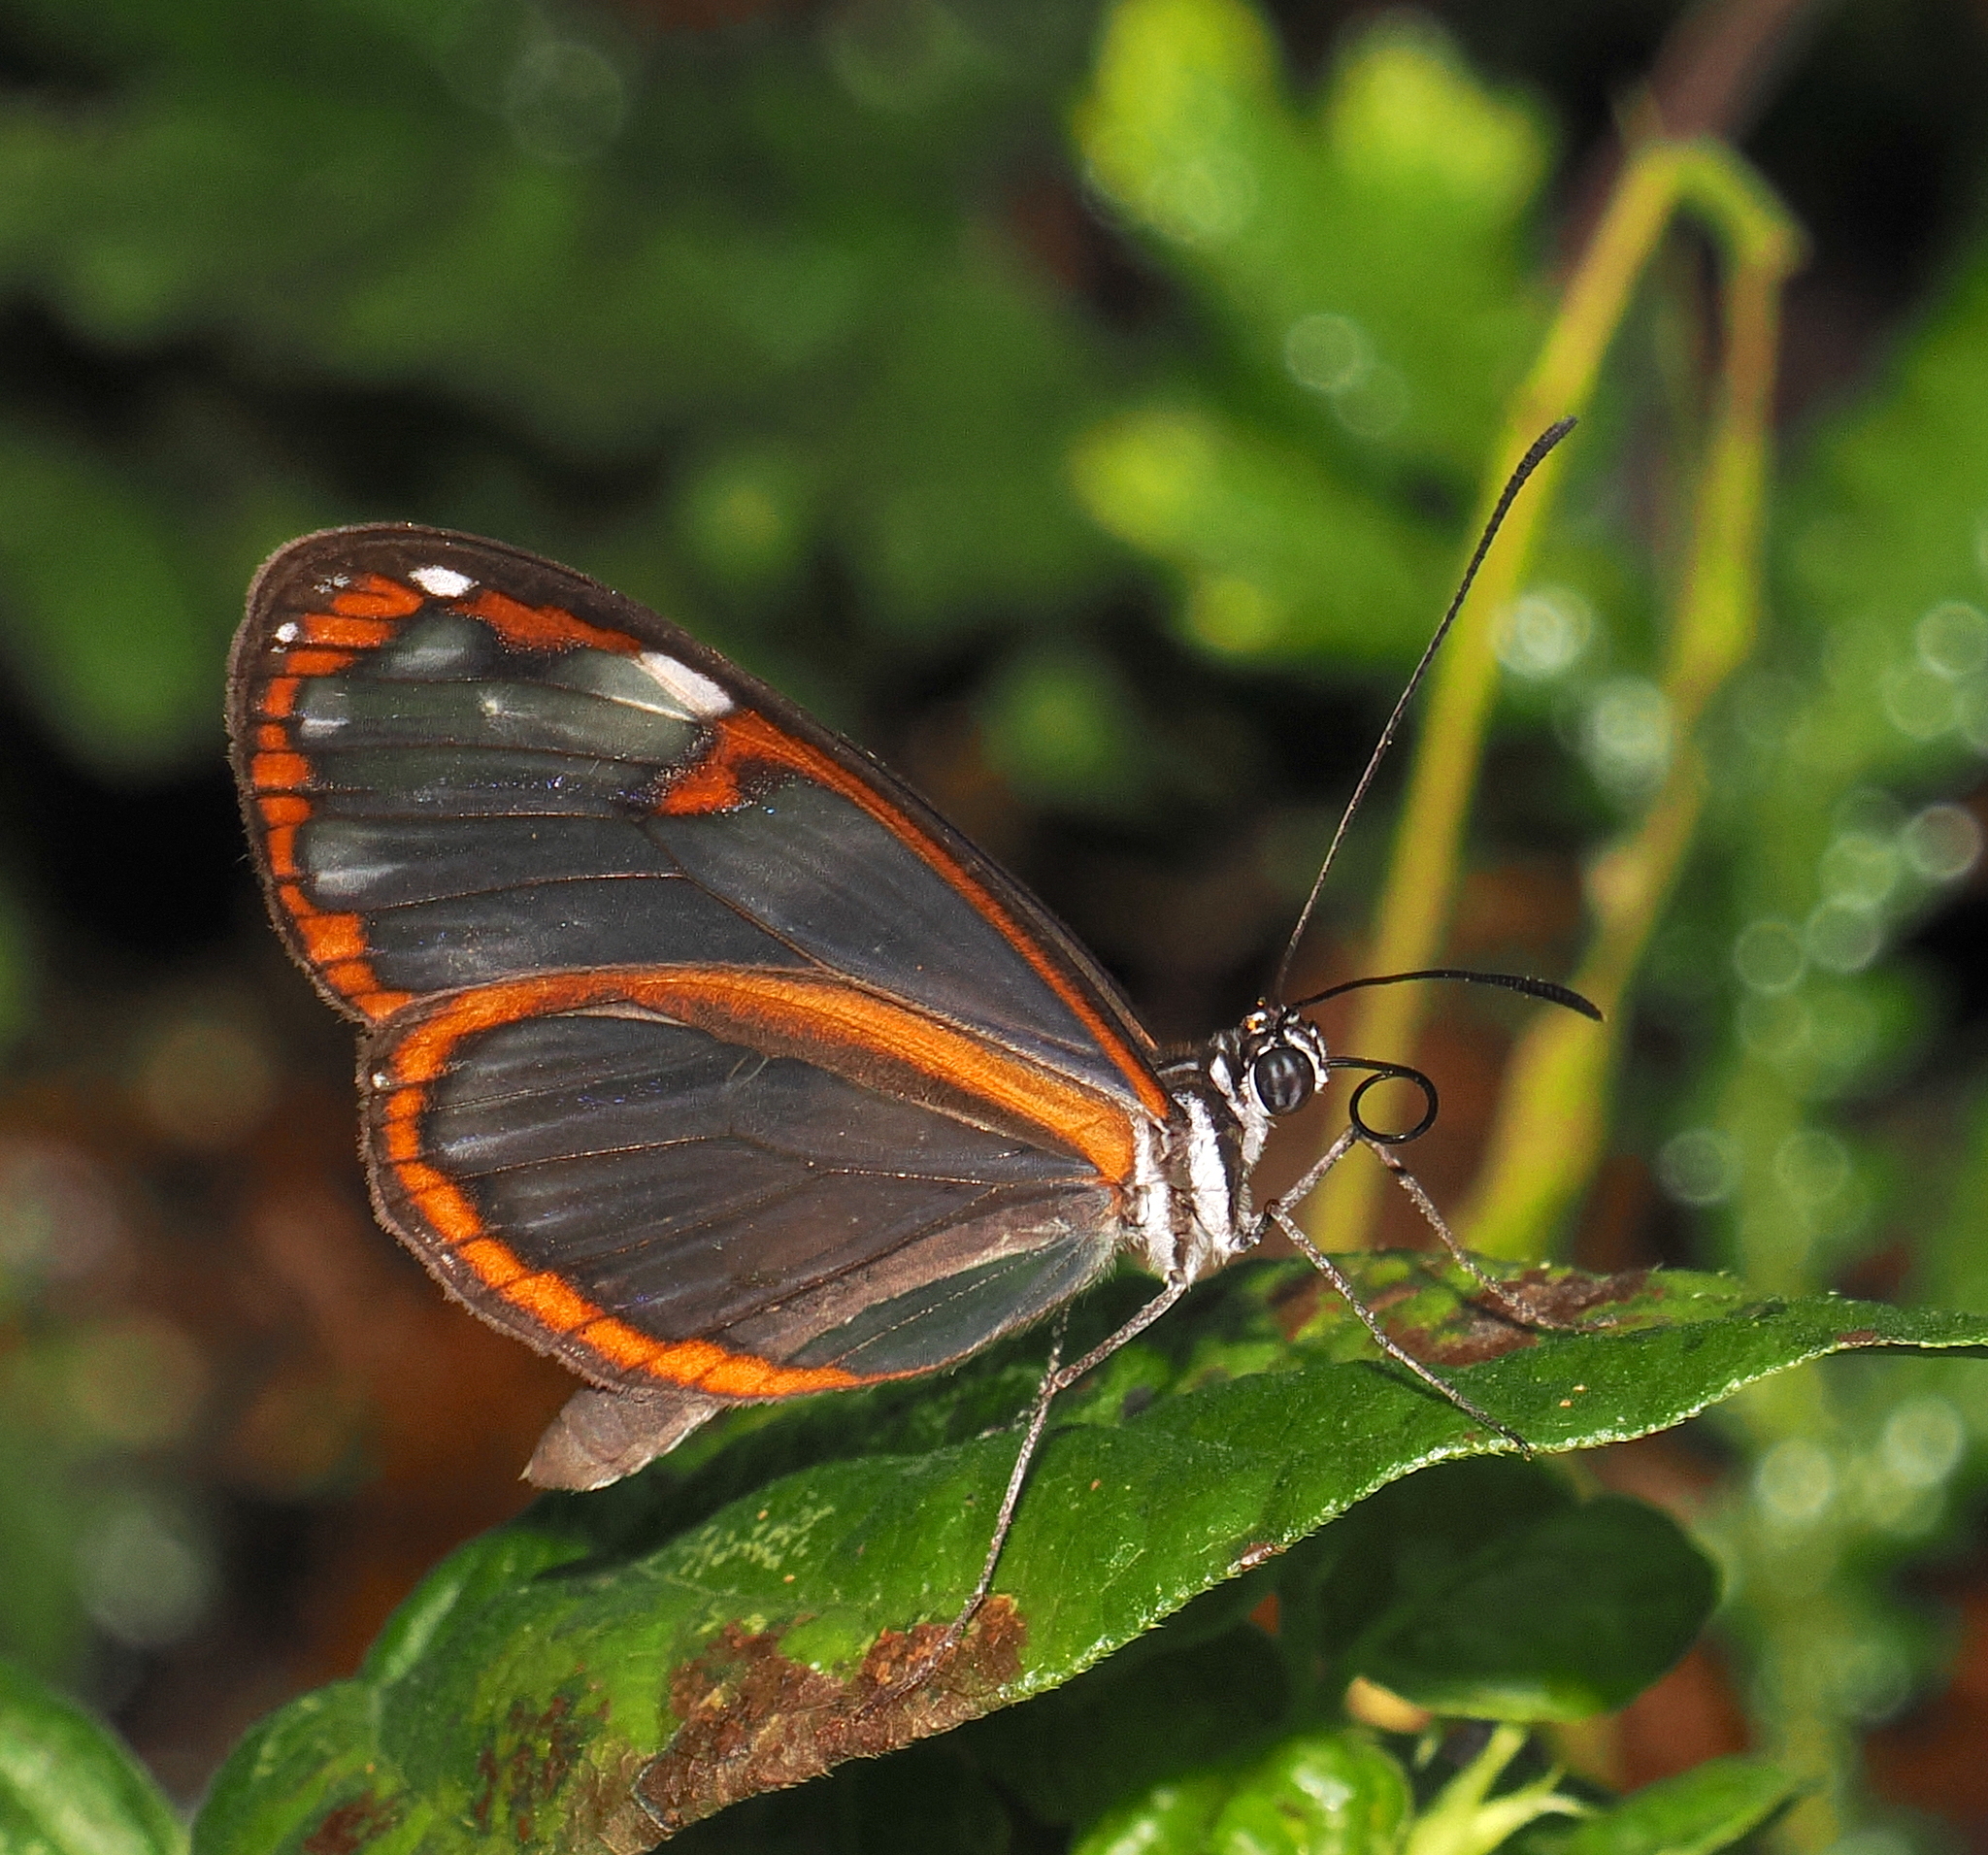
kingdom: Animalia
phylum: Arthropoda
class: Insecta
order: Lepidoptera
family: Nymphalidae
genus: Oleria
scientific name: Oleria fumata
